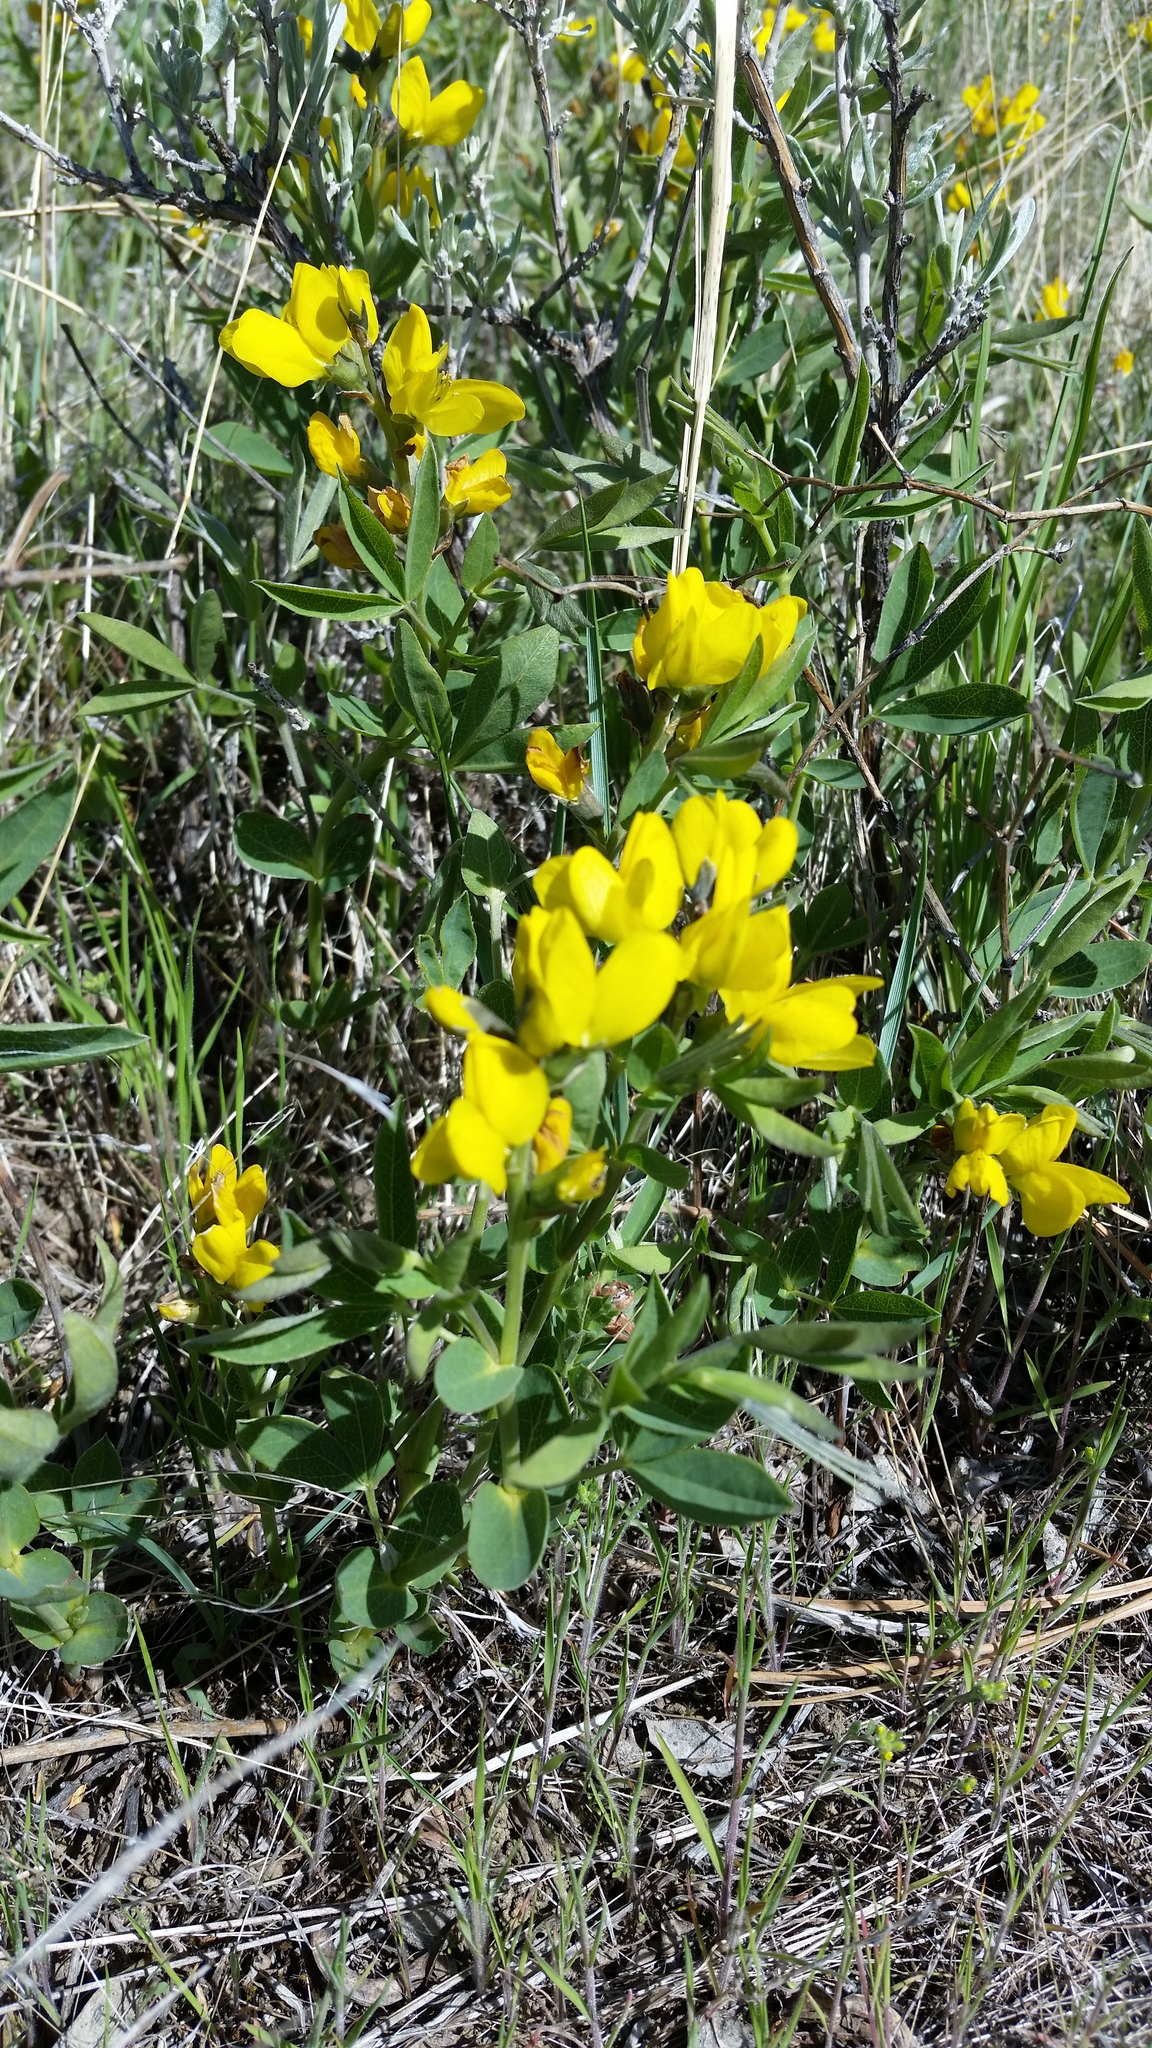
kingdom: Plantae
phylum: Tracheophyta
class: Magnoliopsida
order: Fabales
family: Fabaceae
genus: Thermopsis
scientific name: Thermopsis rhombifolia
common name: Circle-pod-pea
